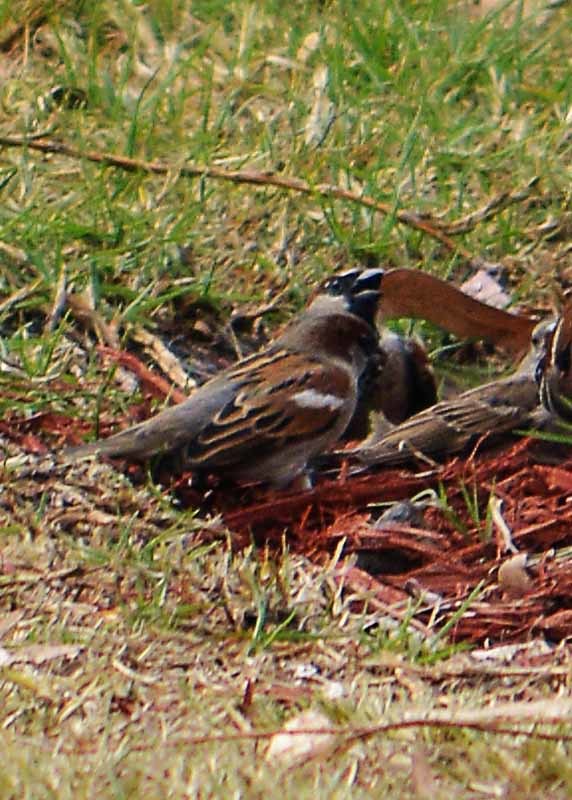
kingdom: Animalia
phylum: Chordata
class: Aves
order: Passeriformes
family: Passeridae
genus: Passer
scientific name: Passer domesticus
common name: House sparrow
